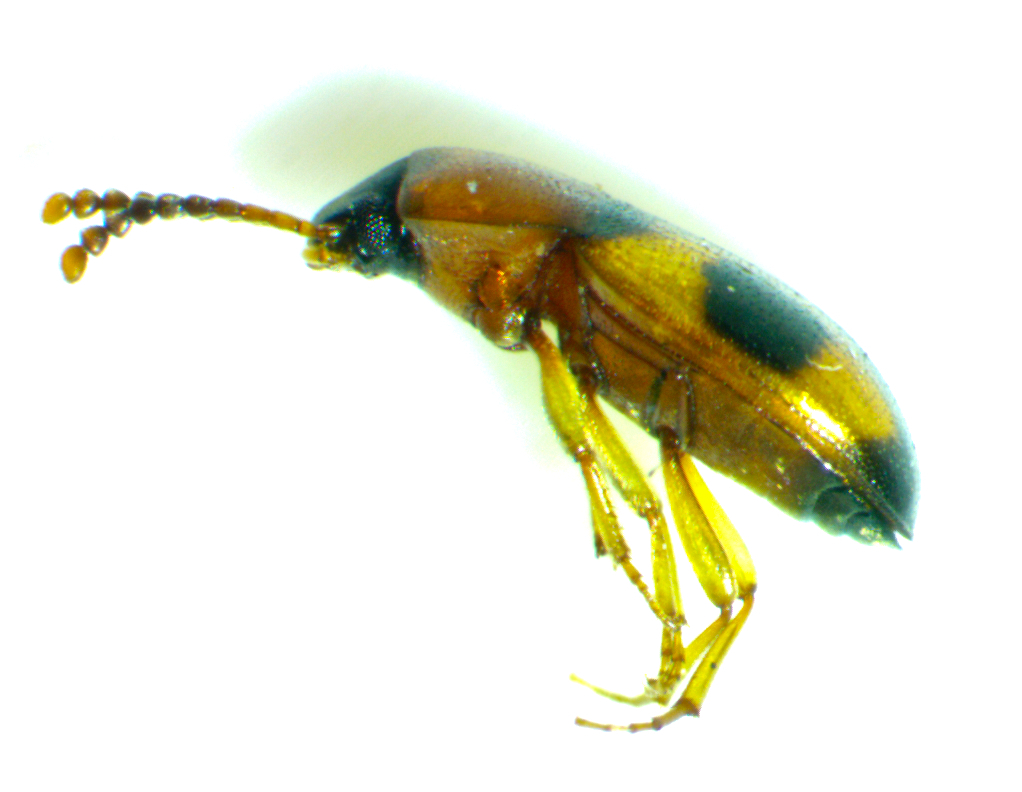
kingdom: Animalia
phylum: Arthropoda
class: Insecta
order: Coleoptera
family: Tenebrionidae
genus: Poecilocrypticus
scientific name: Poecilocrypticus formicophilus
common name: Darkling beetle
